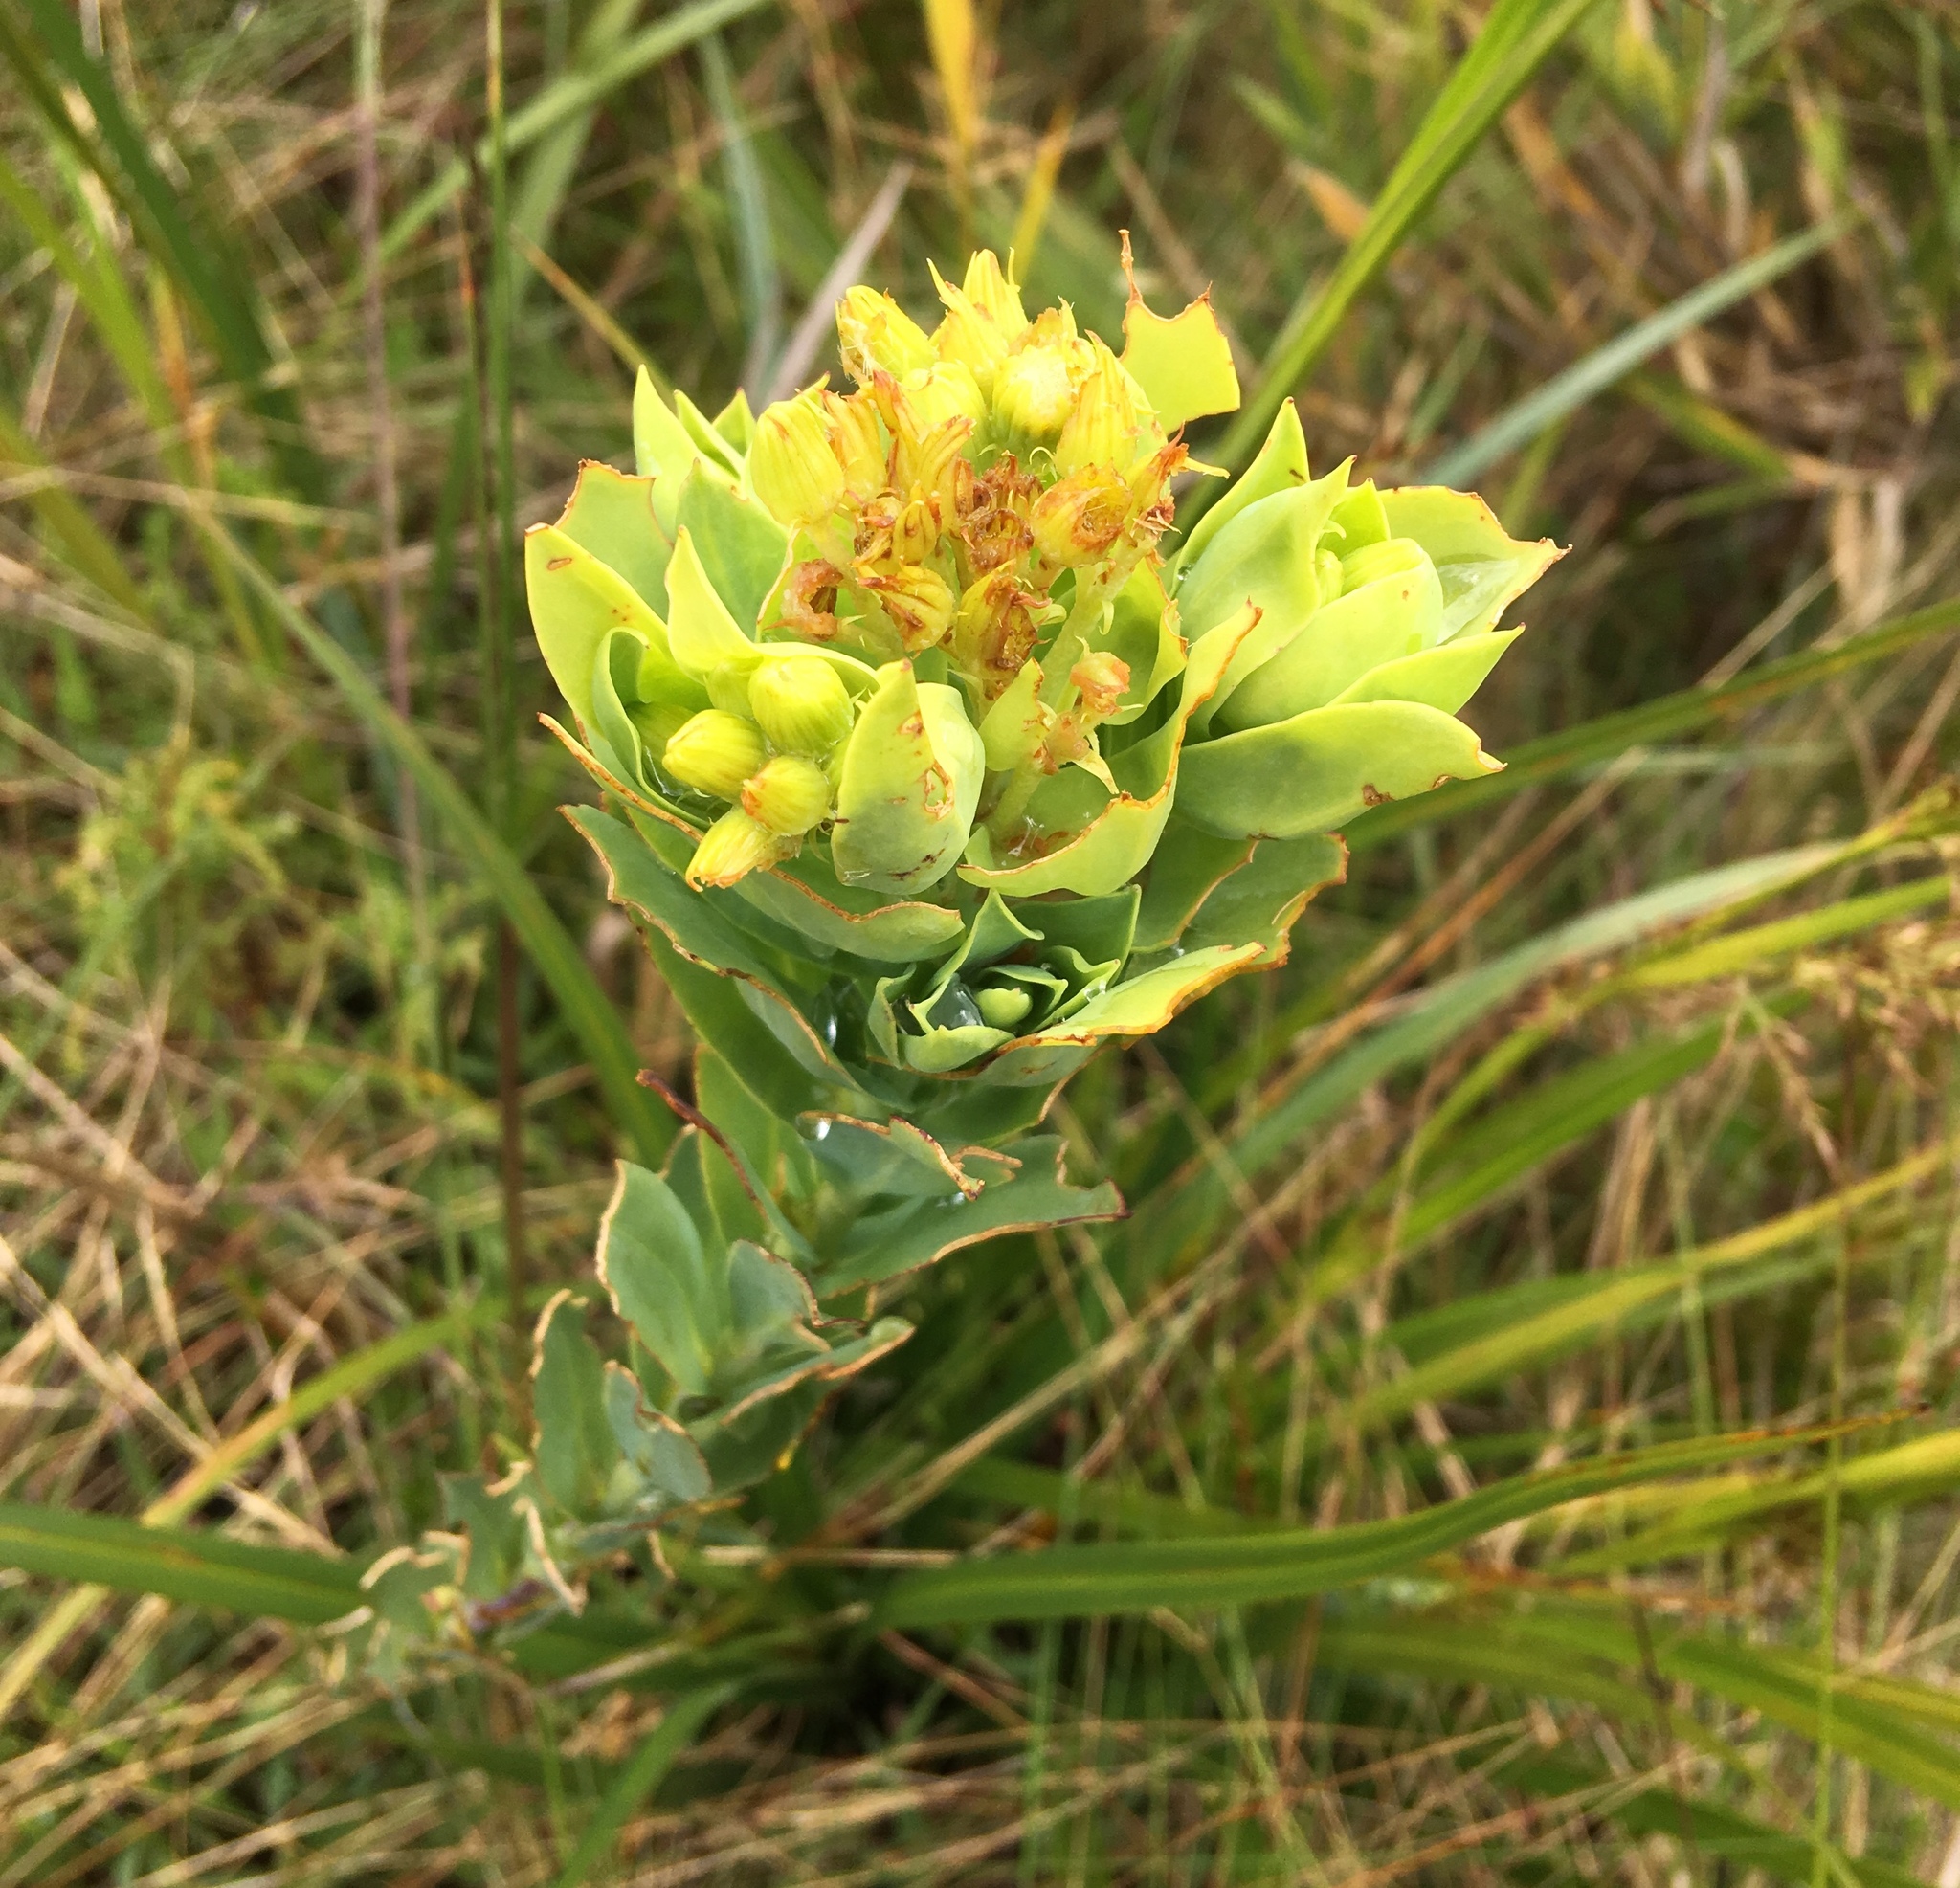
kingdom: Plantae
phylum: Tracheophyta
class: Magnoliopsida
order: Asterales
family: Asteraceae
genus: Monticalia
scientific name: Monticalia vaccinioides
